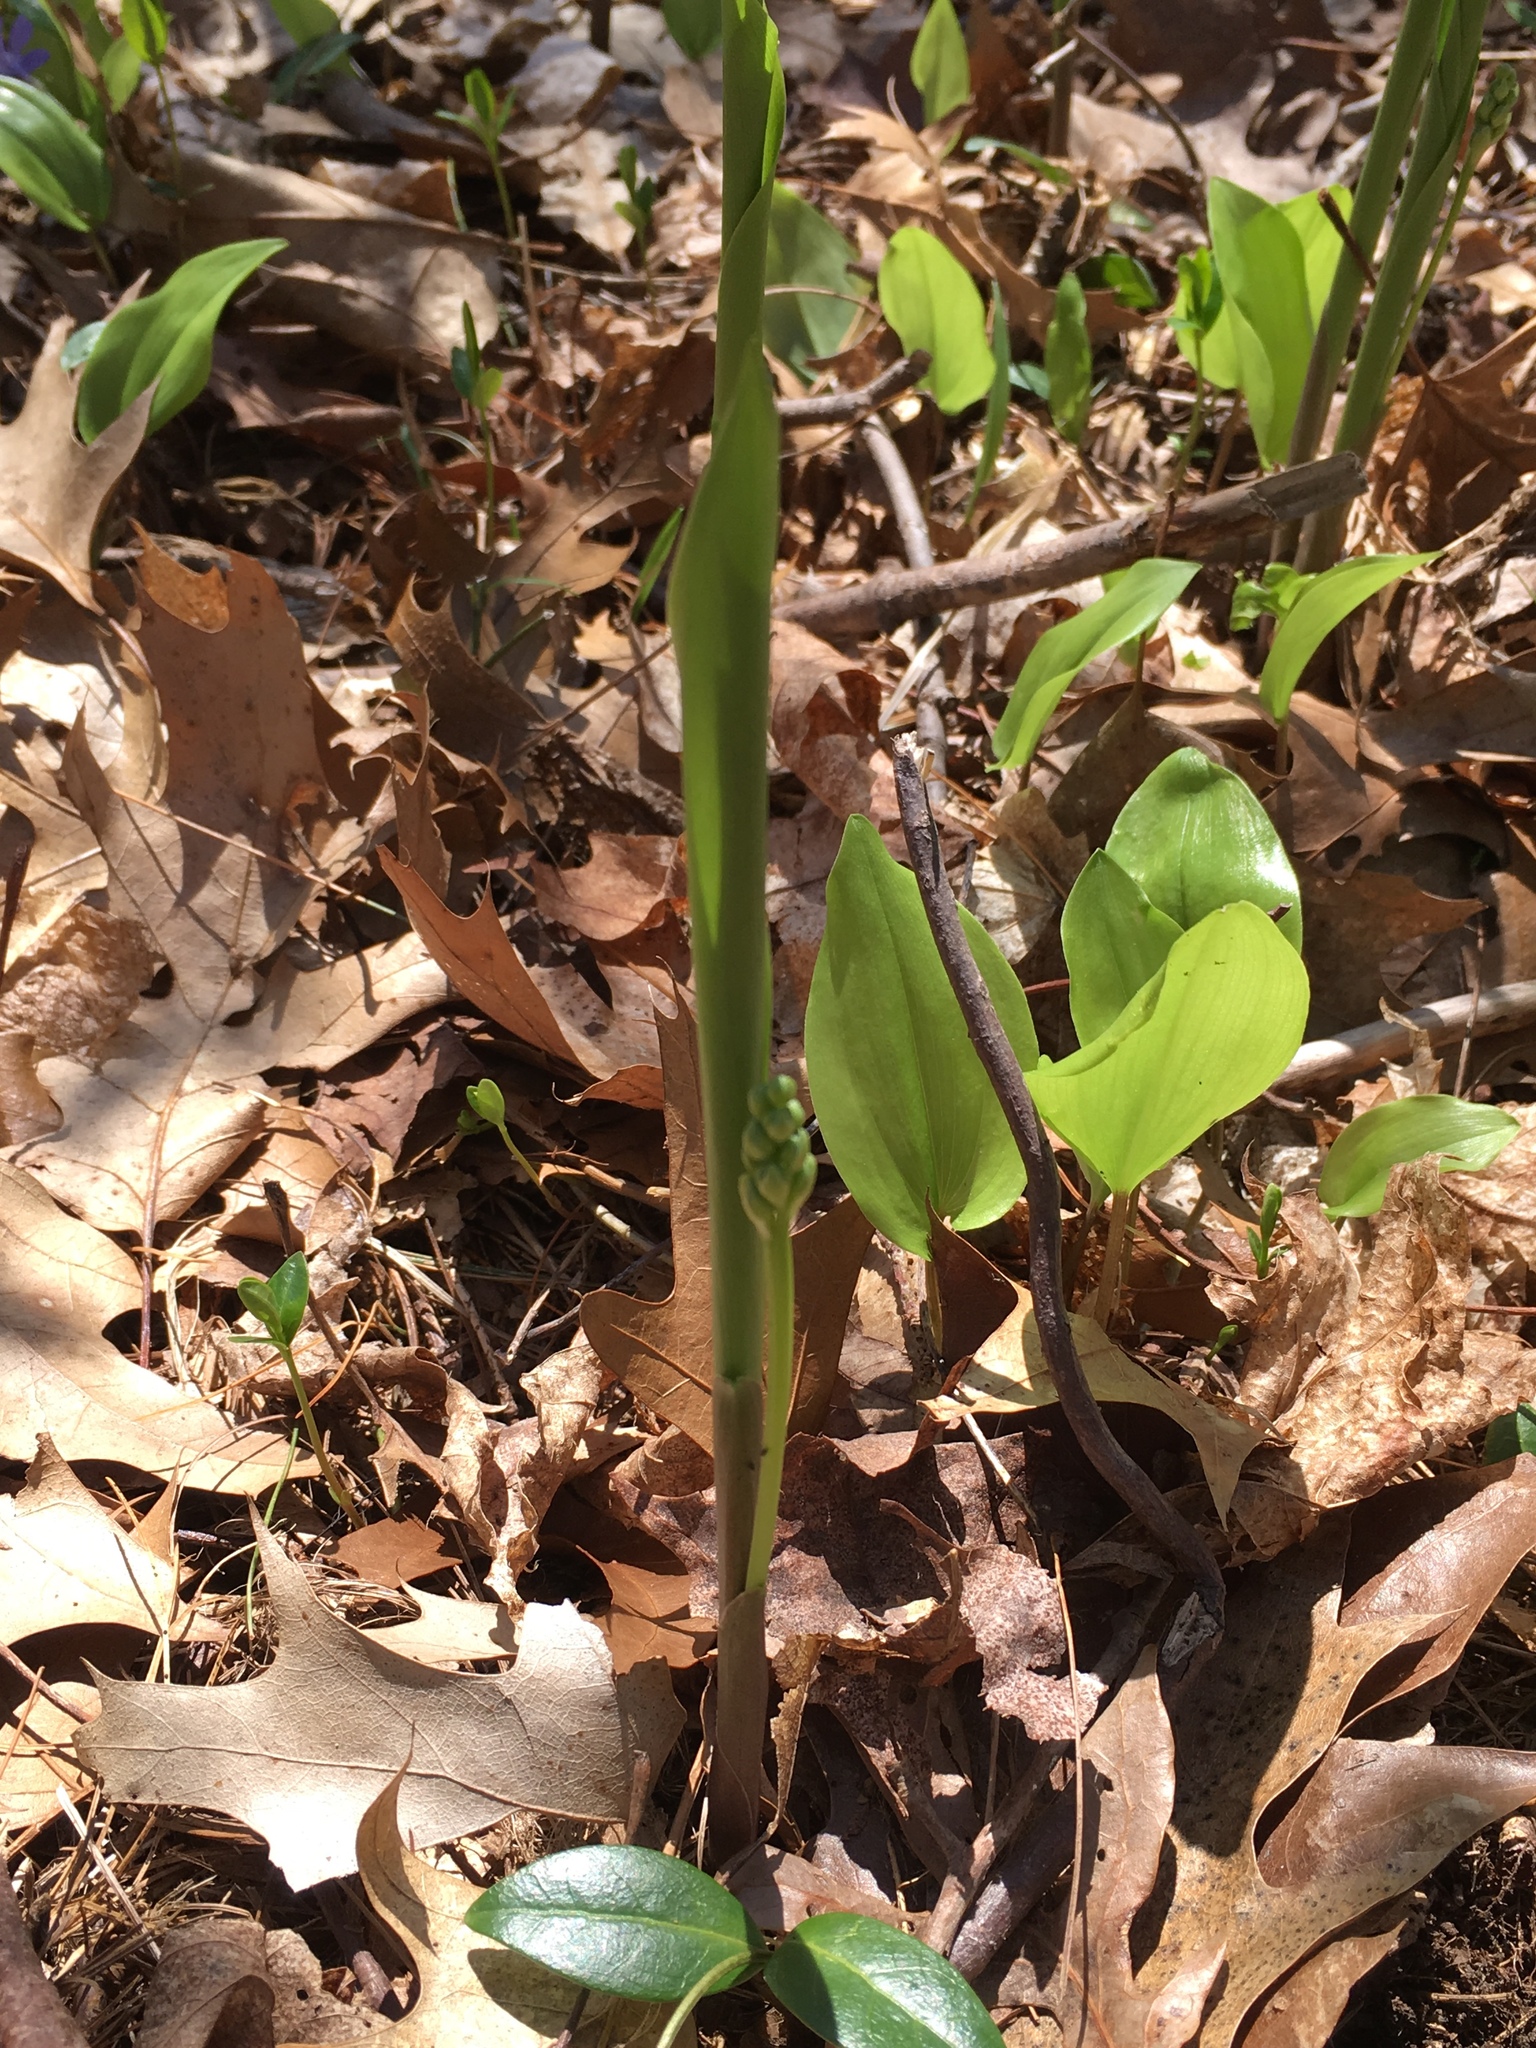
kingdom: Plantae
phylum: Tracheophyta
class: Liliopsida
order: Asparagales
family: Asparagaceae
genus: Convallaria
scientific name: Convallaria majalis
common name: Lily-of-the-valley
